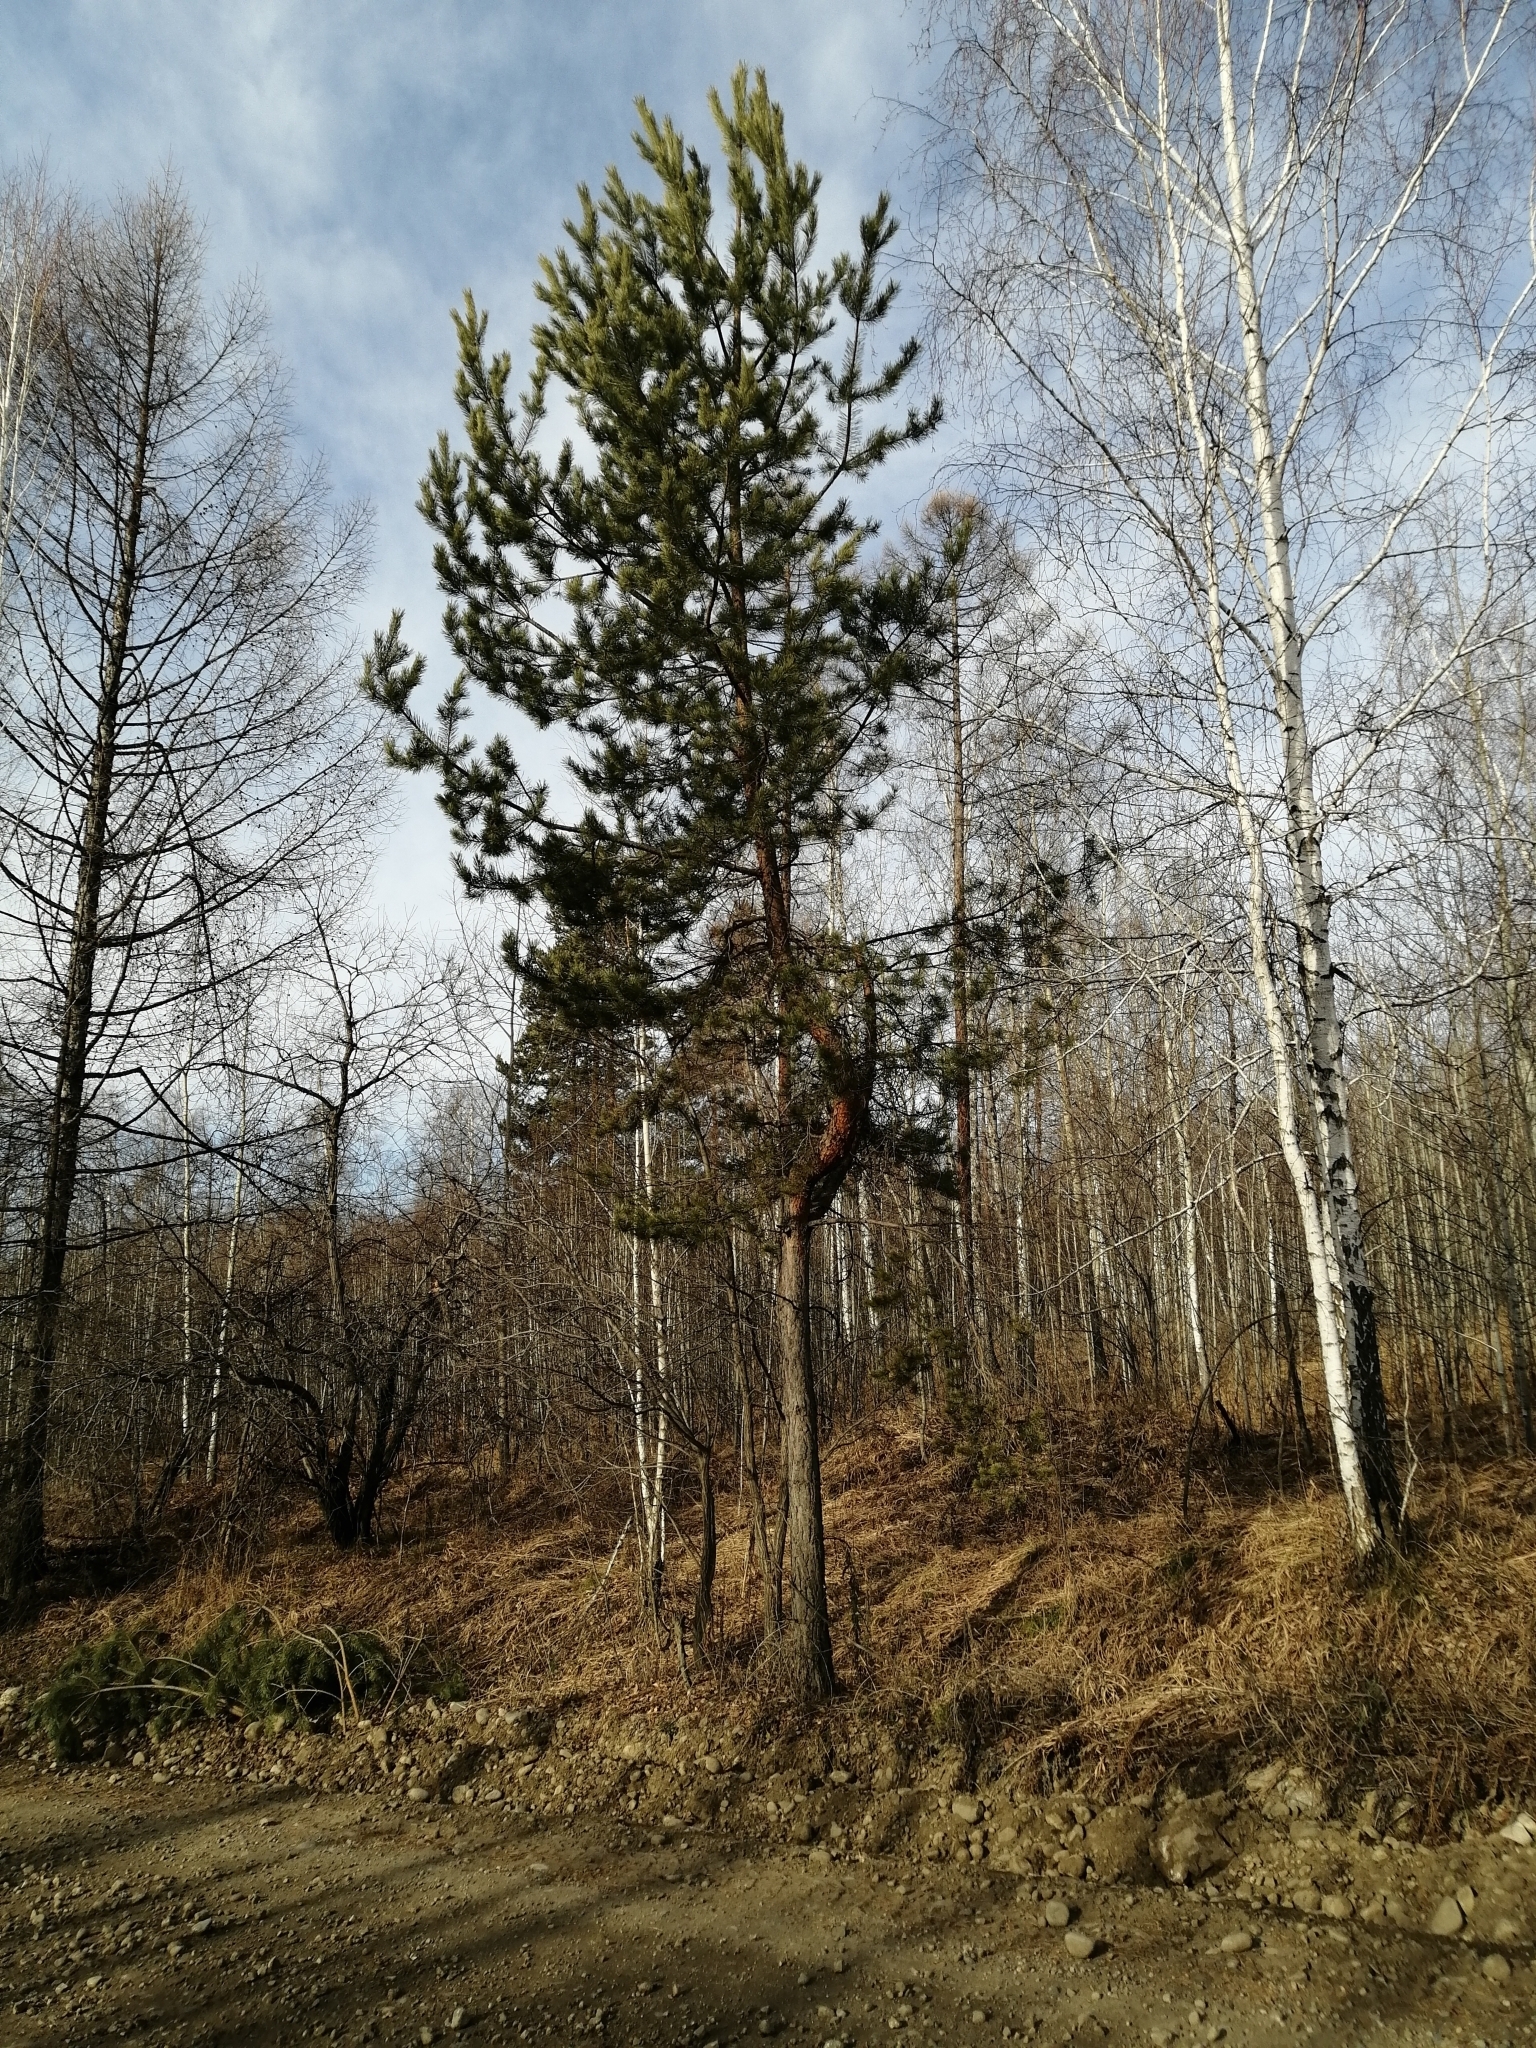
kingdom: Plantae
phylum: Tracheophyta
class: Pinopsida
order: Pinales
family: Pinaceae
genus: Pinus
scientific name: Pinus sylvestris
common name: Scots pine
